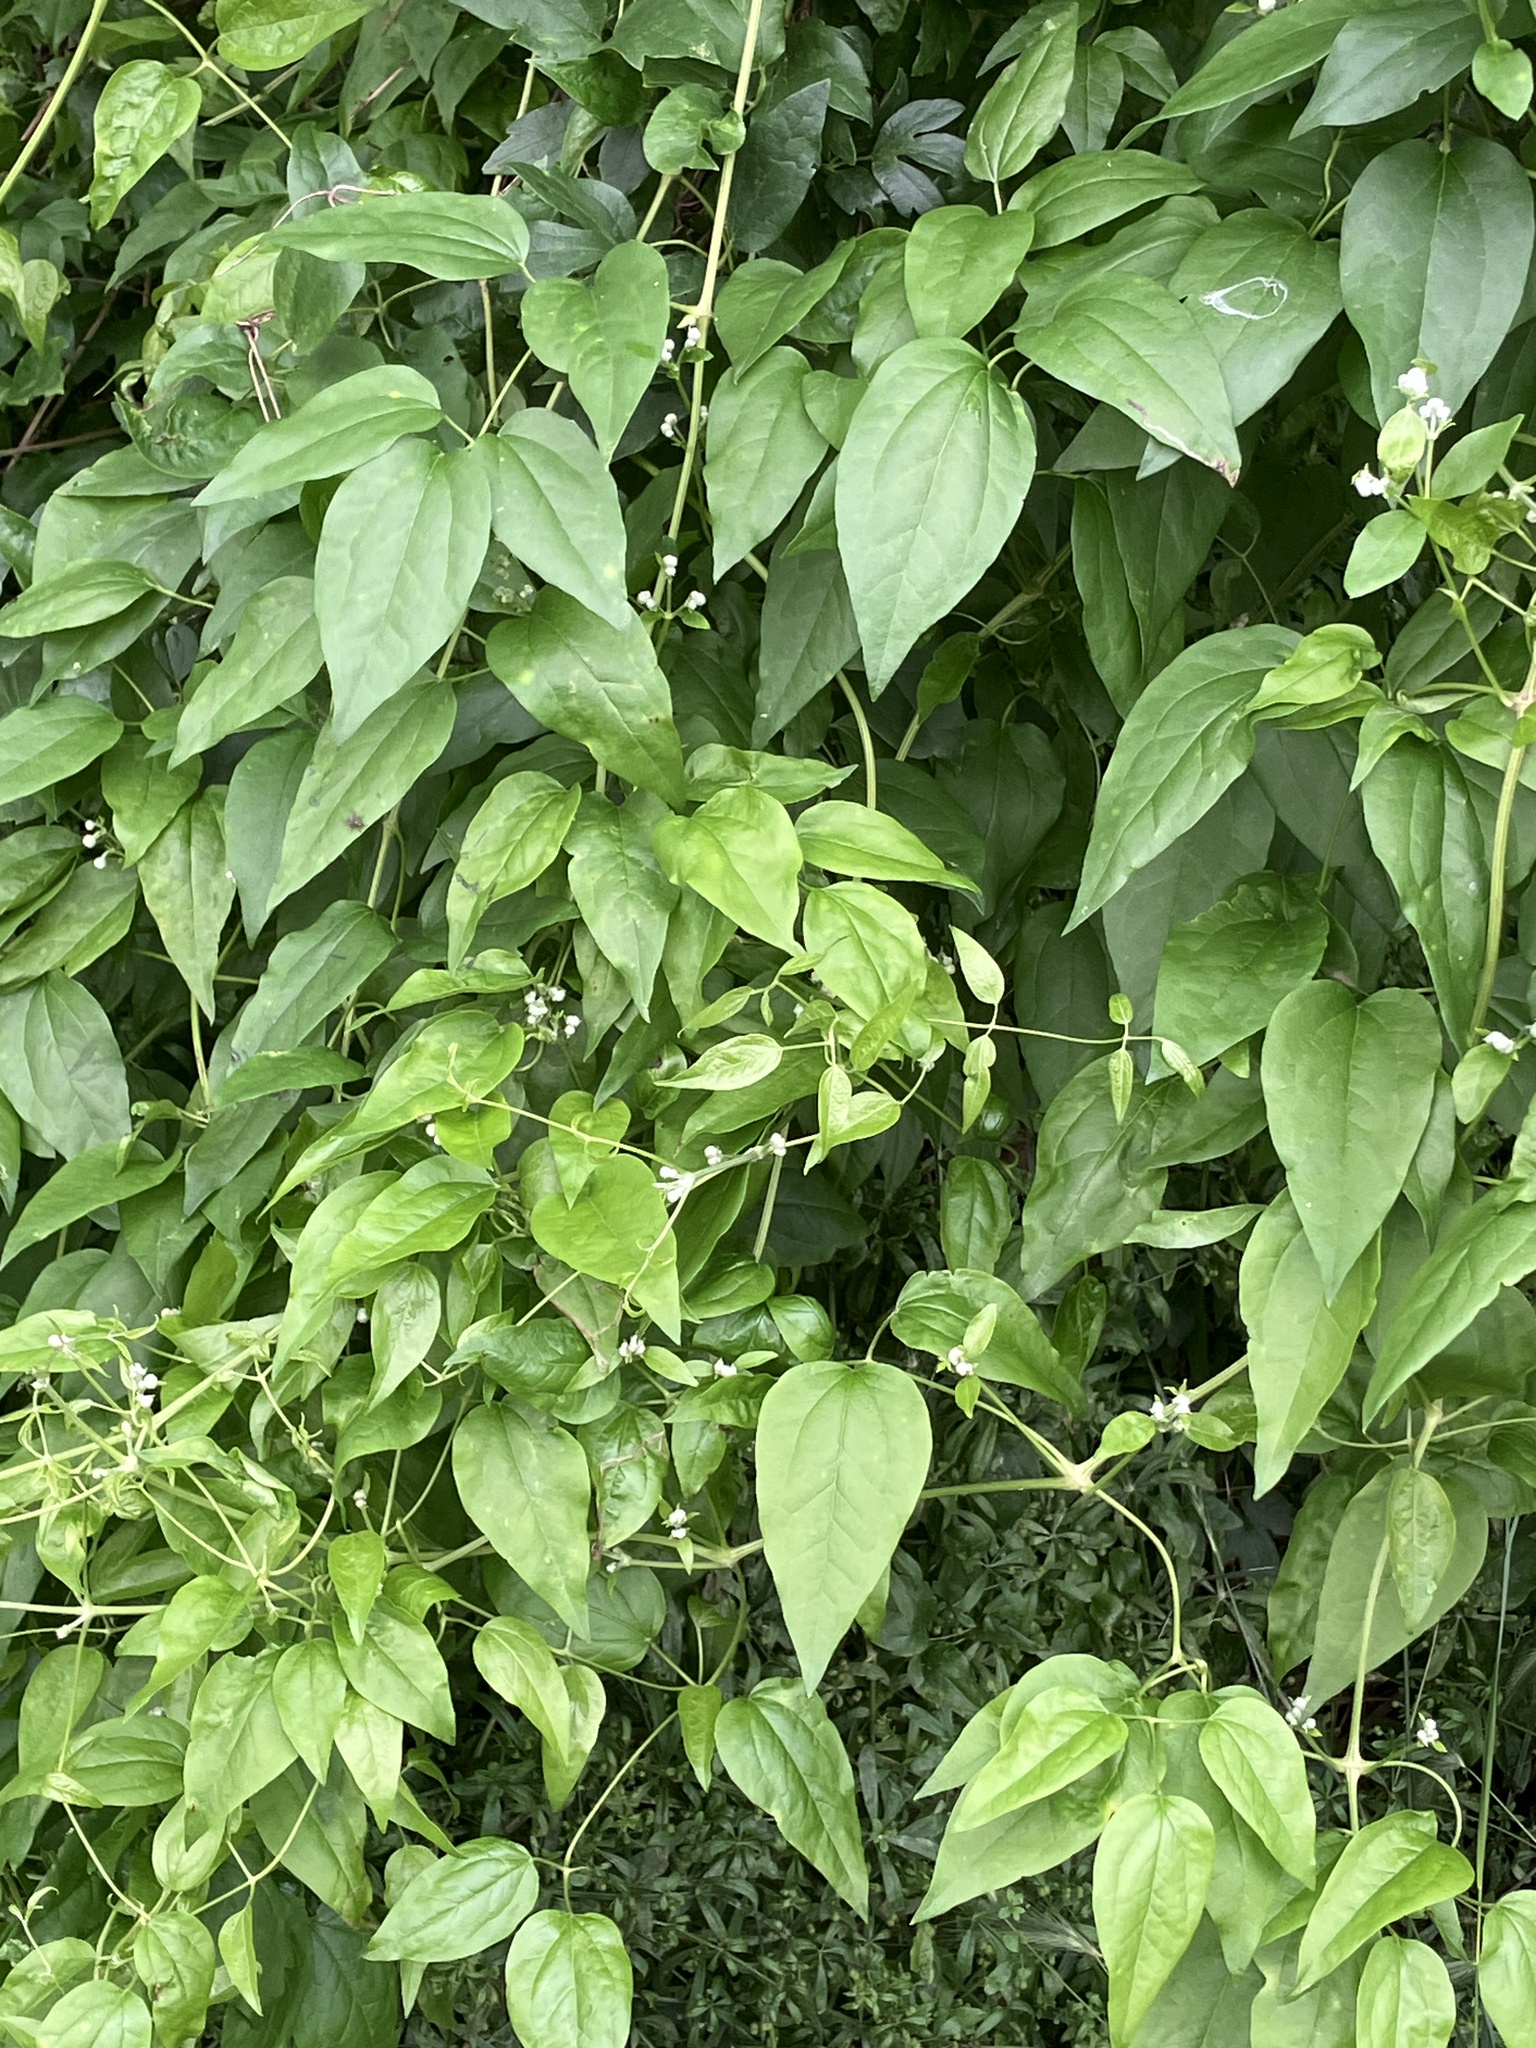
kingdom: Plantae
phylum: Tracheophyta
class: Magnoliopsida
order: Ranunculales
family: Ranunculaceae
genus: Clematis
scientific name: Clematis vitalba
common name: Evergreen clematis
